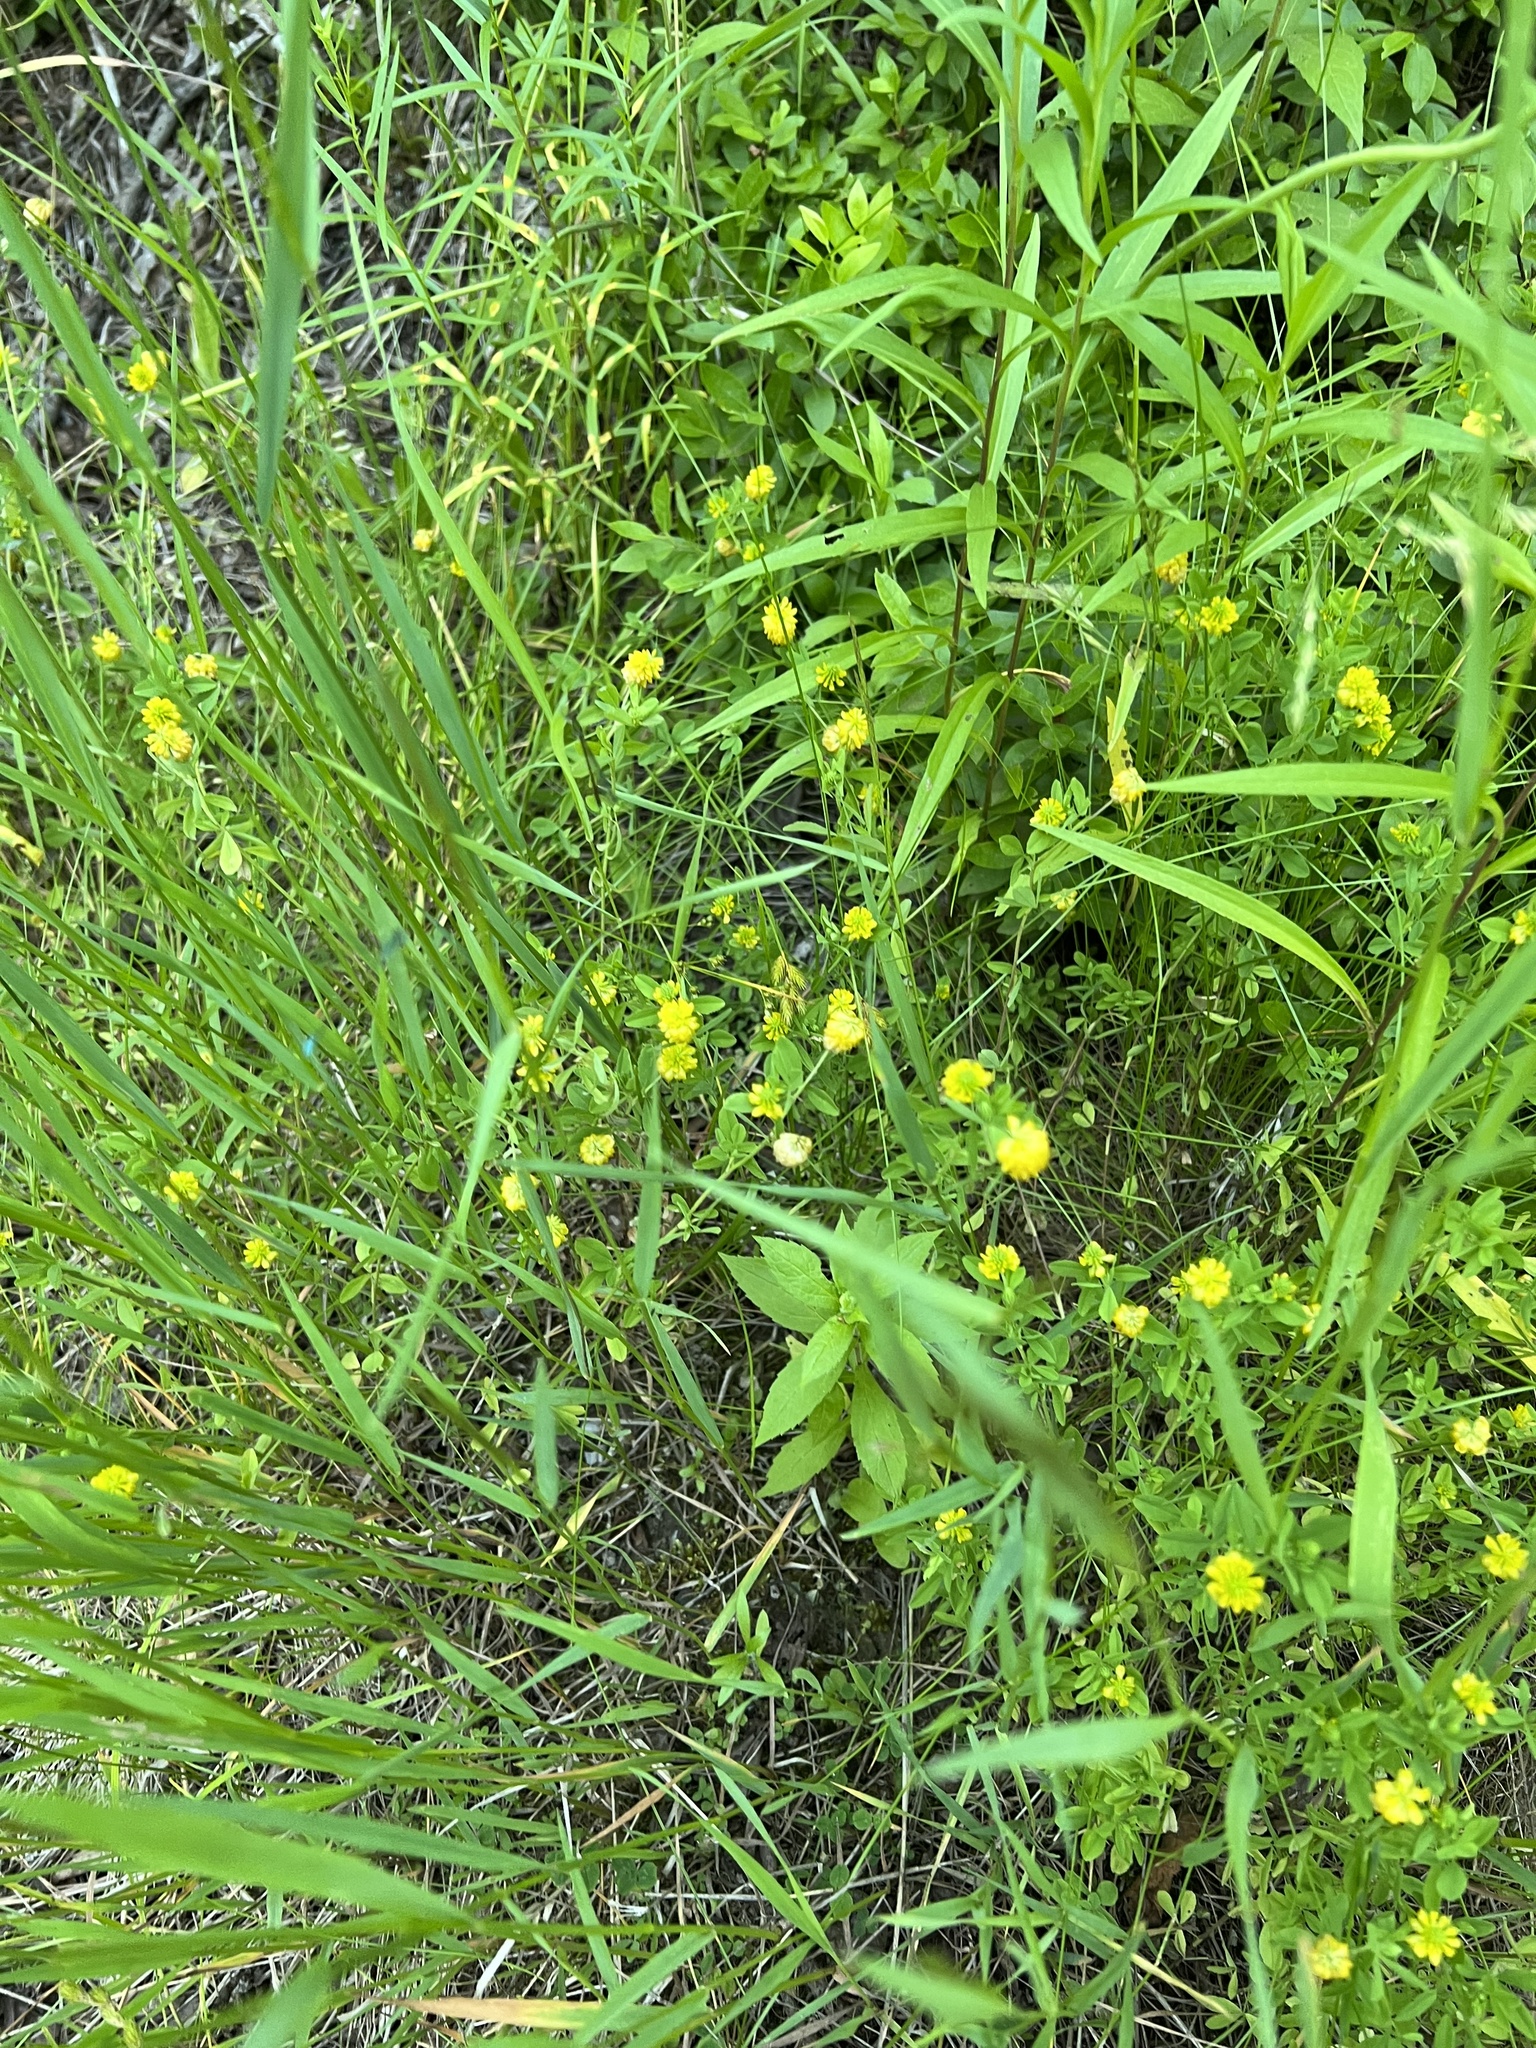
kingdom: Plantae
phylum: Tracheophyta
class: Magnoliopsida
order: Fabales
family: Fabaceae
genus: Trifolium
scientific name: Trifolium aureum
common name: Golden clover
